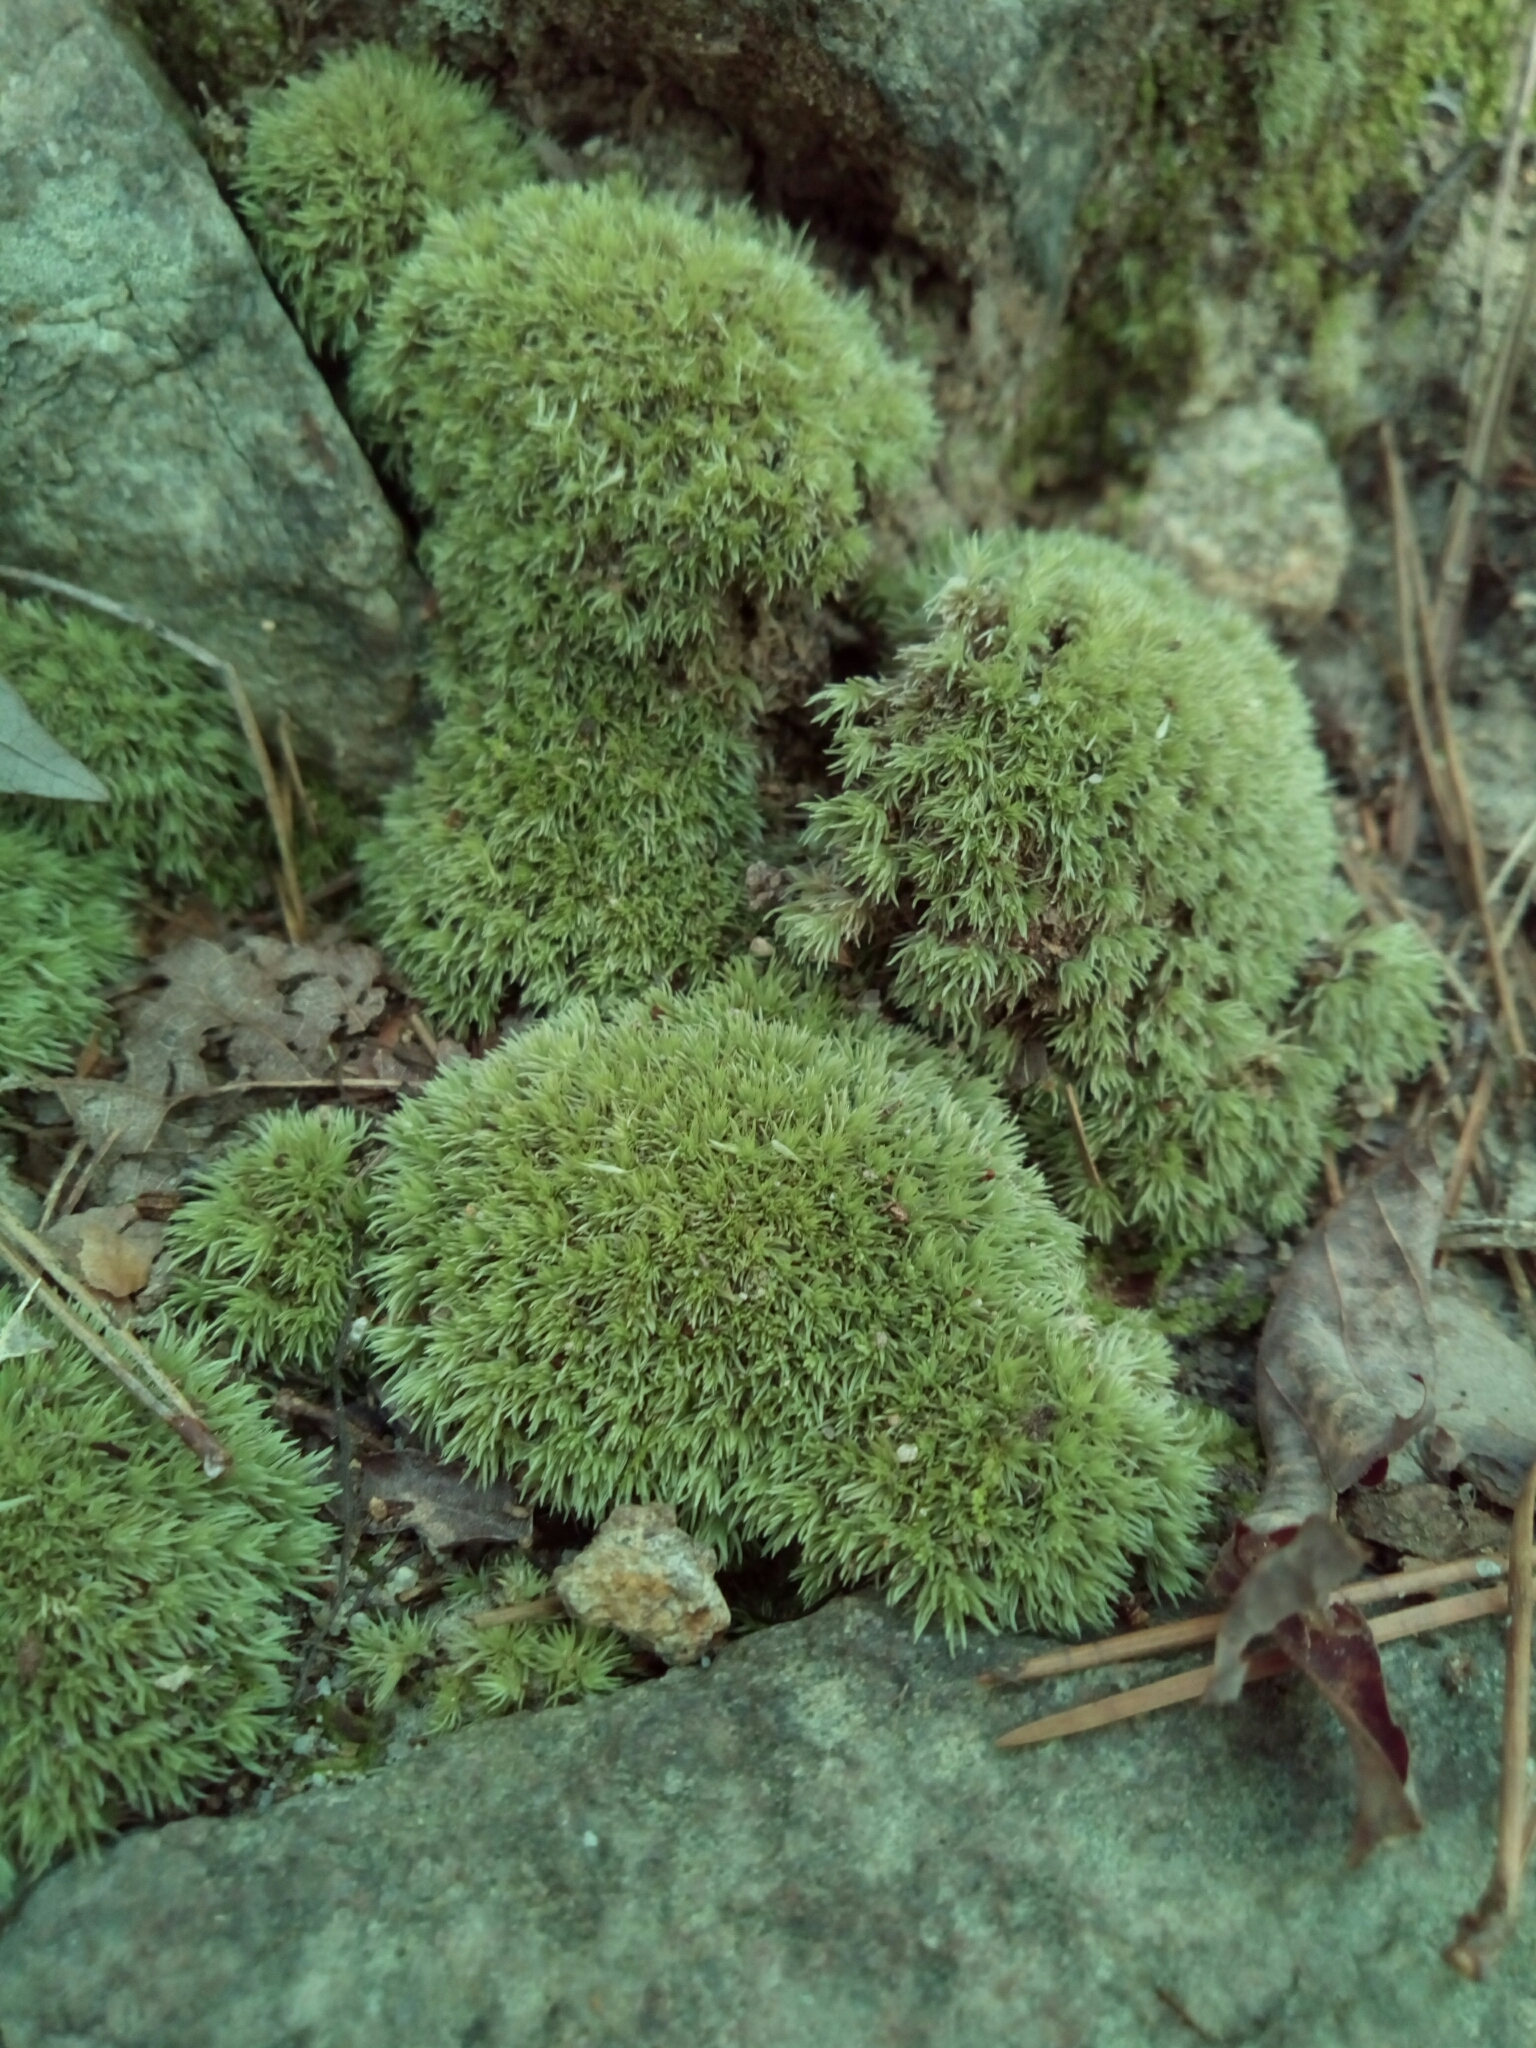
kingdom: Plantae
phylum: Bryophyta
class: Bryopsida
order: Dicranales
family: Leucobryaceae
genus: Leucobryum
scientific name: Leucobryum glaucum
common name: Large white-moss
